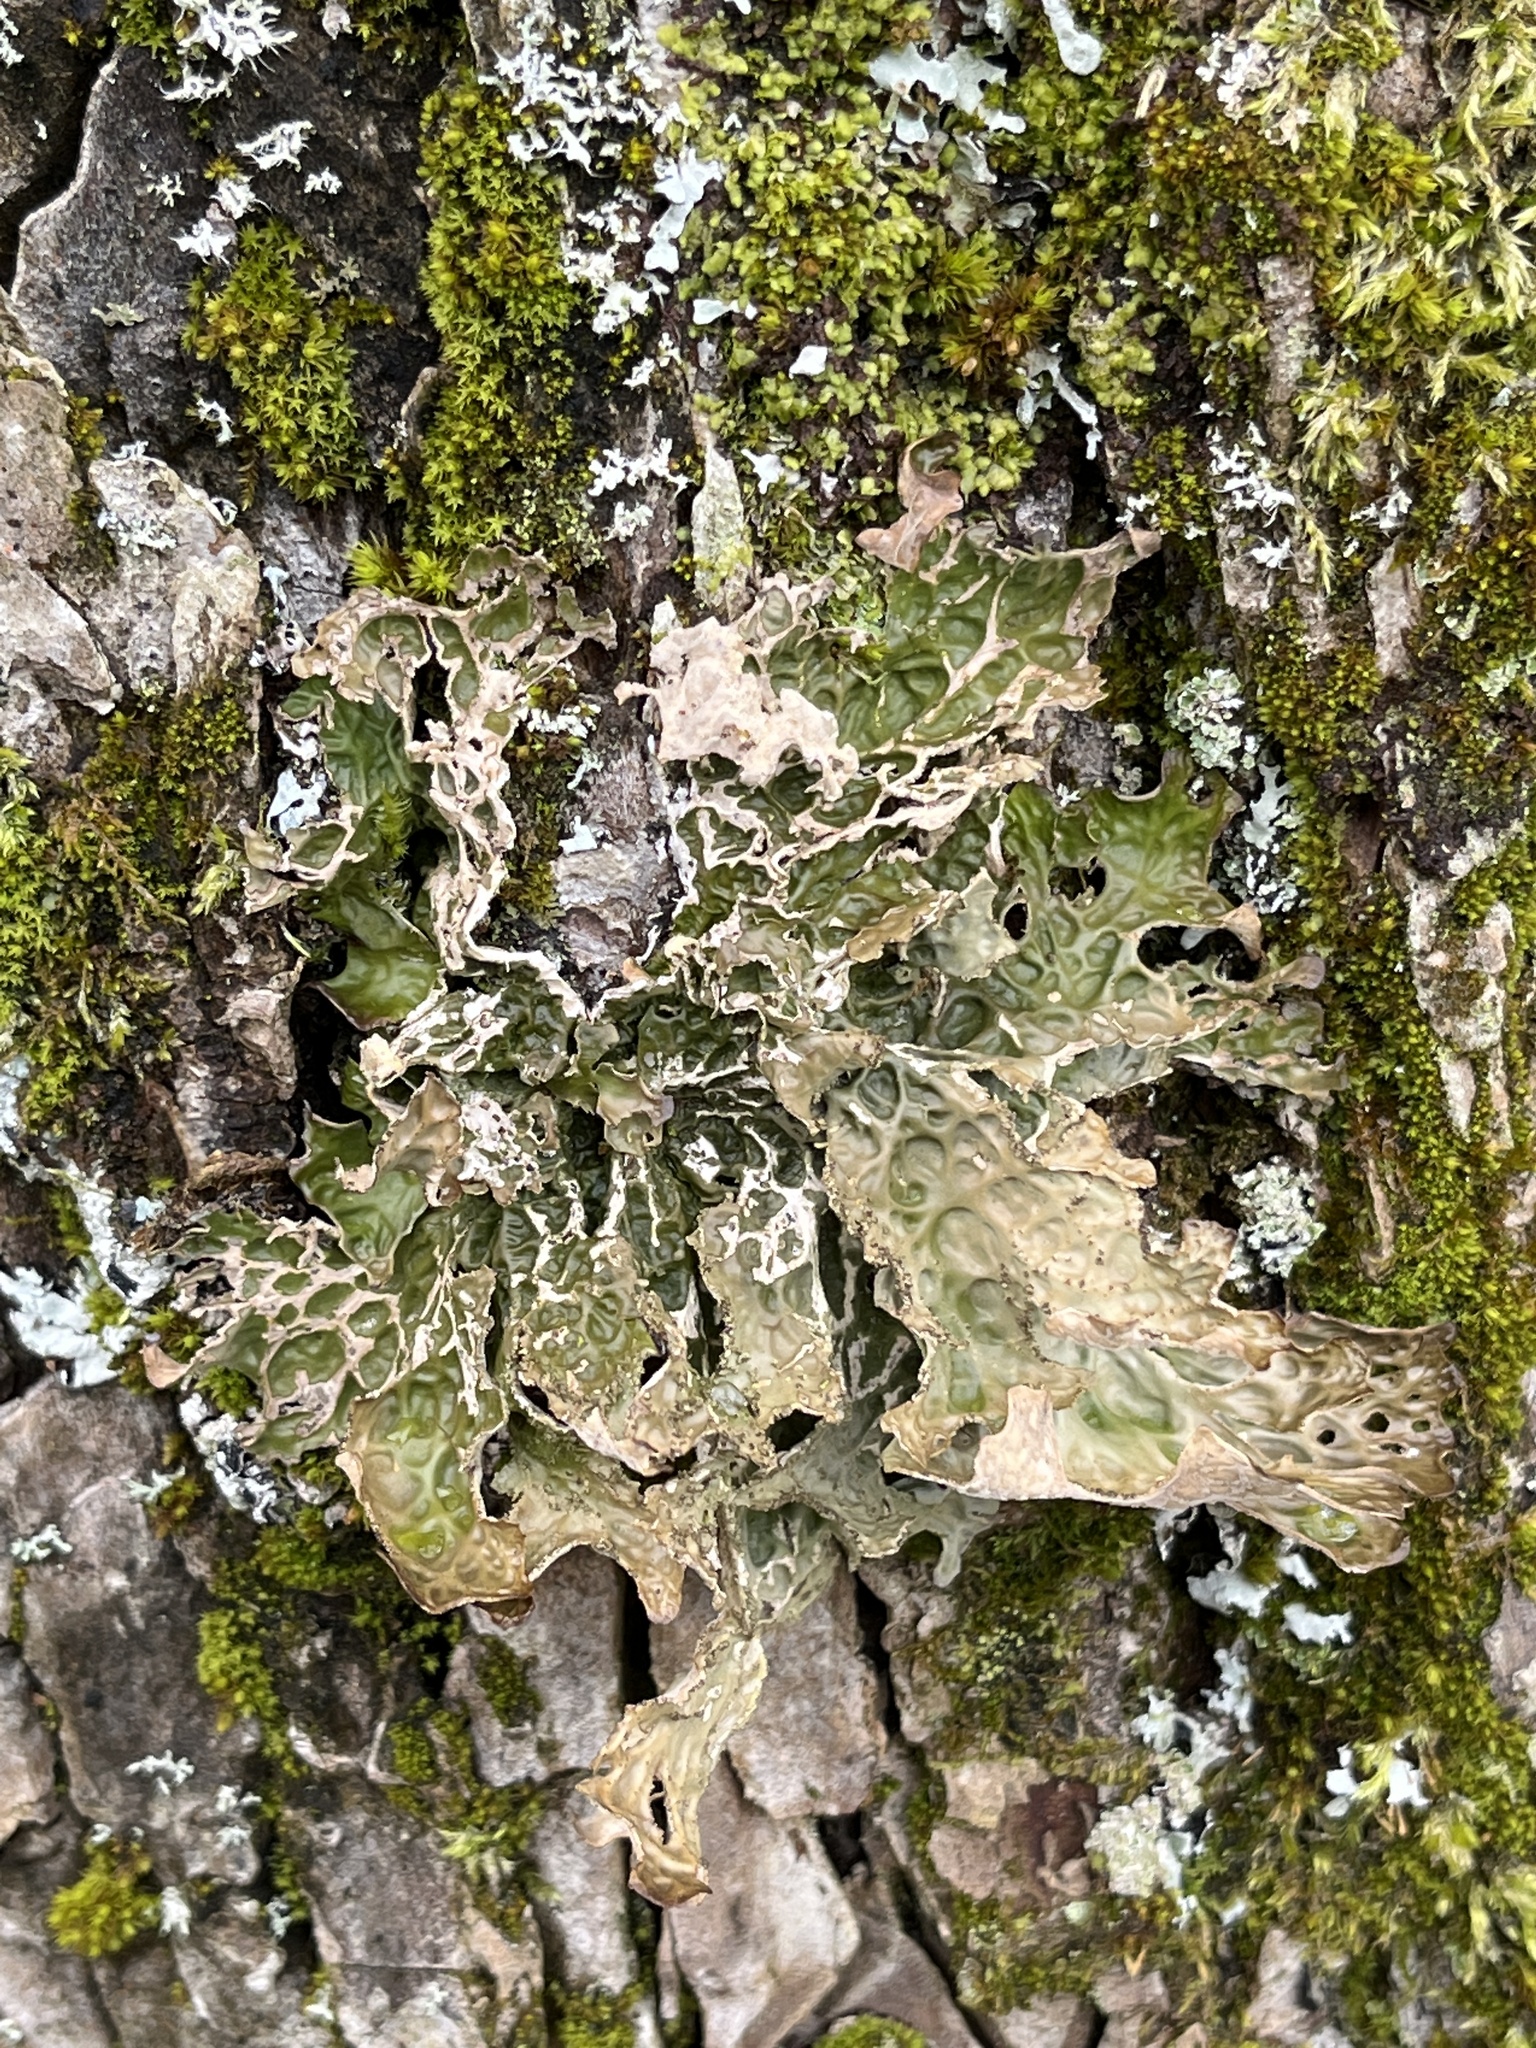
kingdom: Fungi
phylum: Ascomycota
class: Lecanoromycetes
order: Peltigerales
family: Lobariaceae
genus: Lobaria
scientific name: Lobaria pulmonaria
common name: Lungwort
